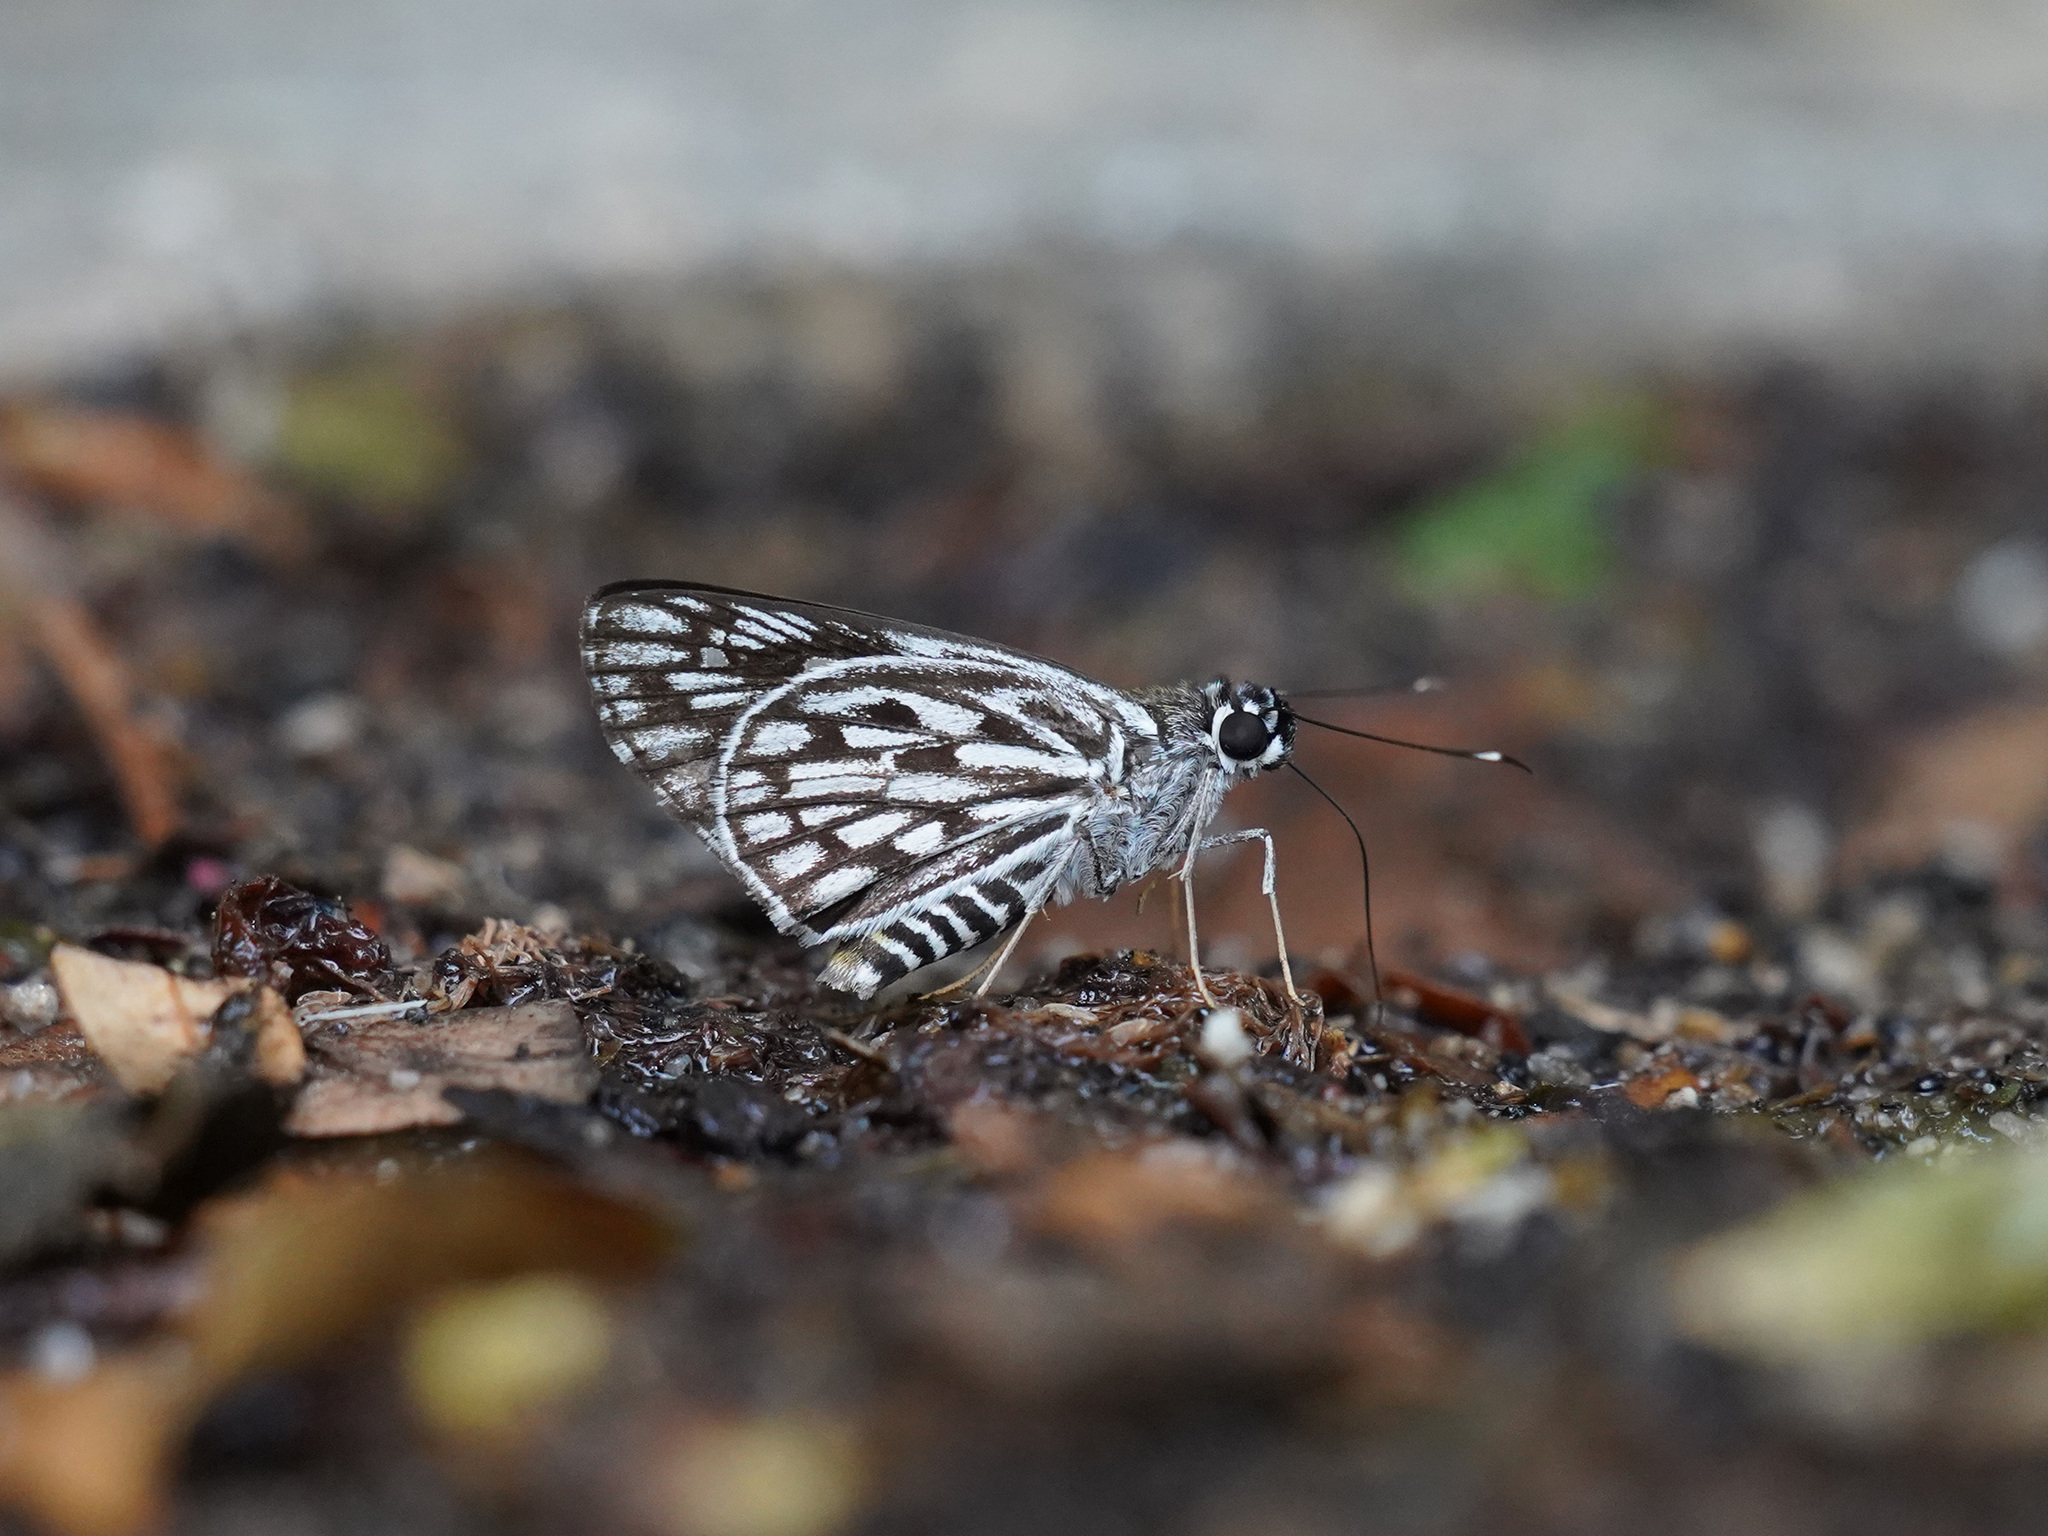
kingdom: Animalia
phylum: Arthropoda
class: Insecta
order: Lepidoptera
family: Hesperiidae
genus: Plastingia
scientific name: Plastingia naga
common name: Chequered lancer
